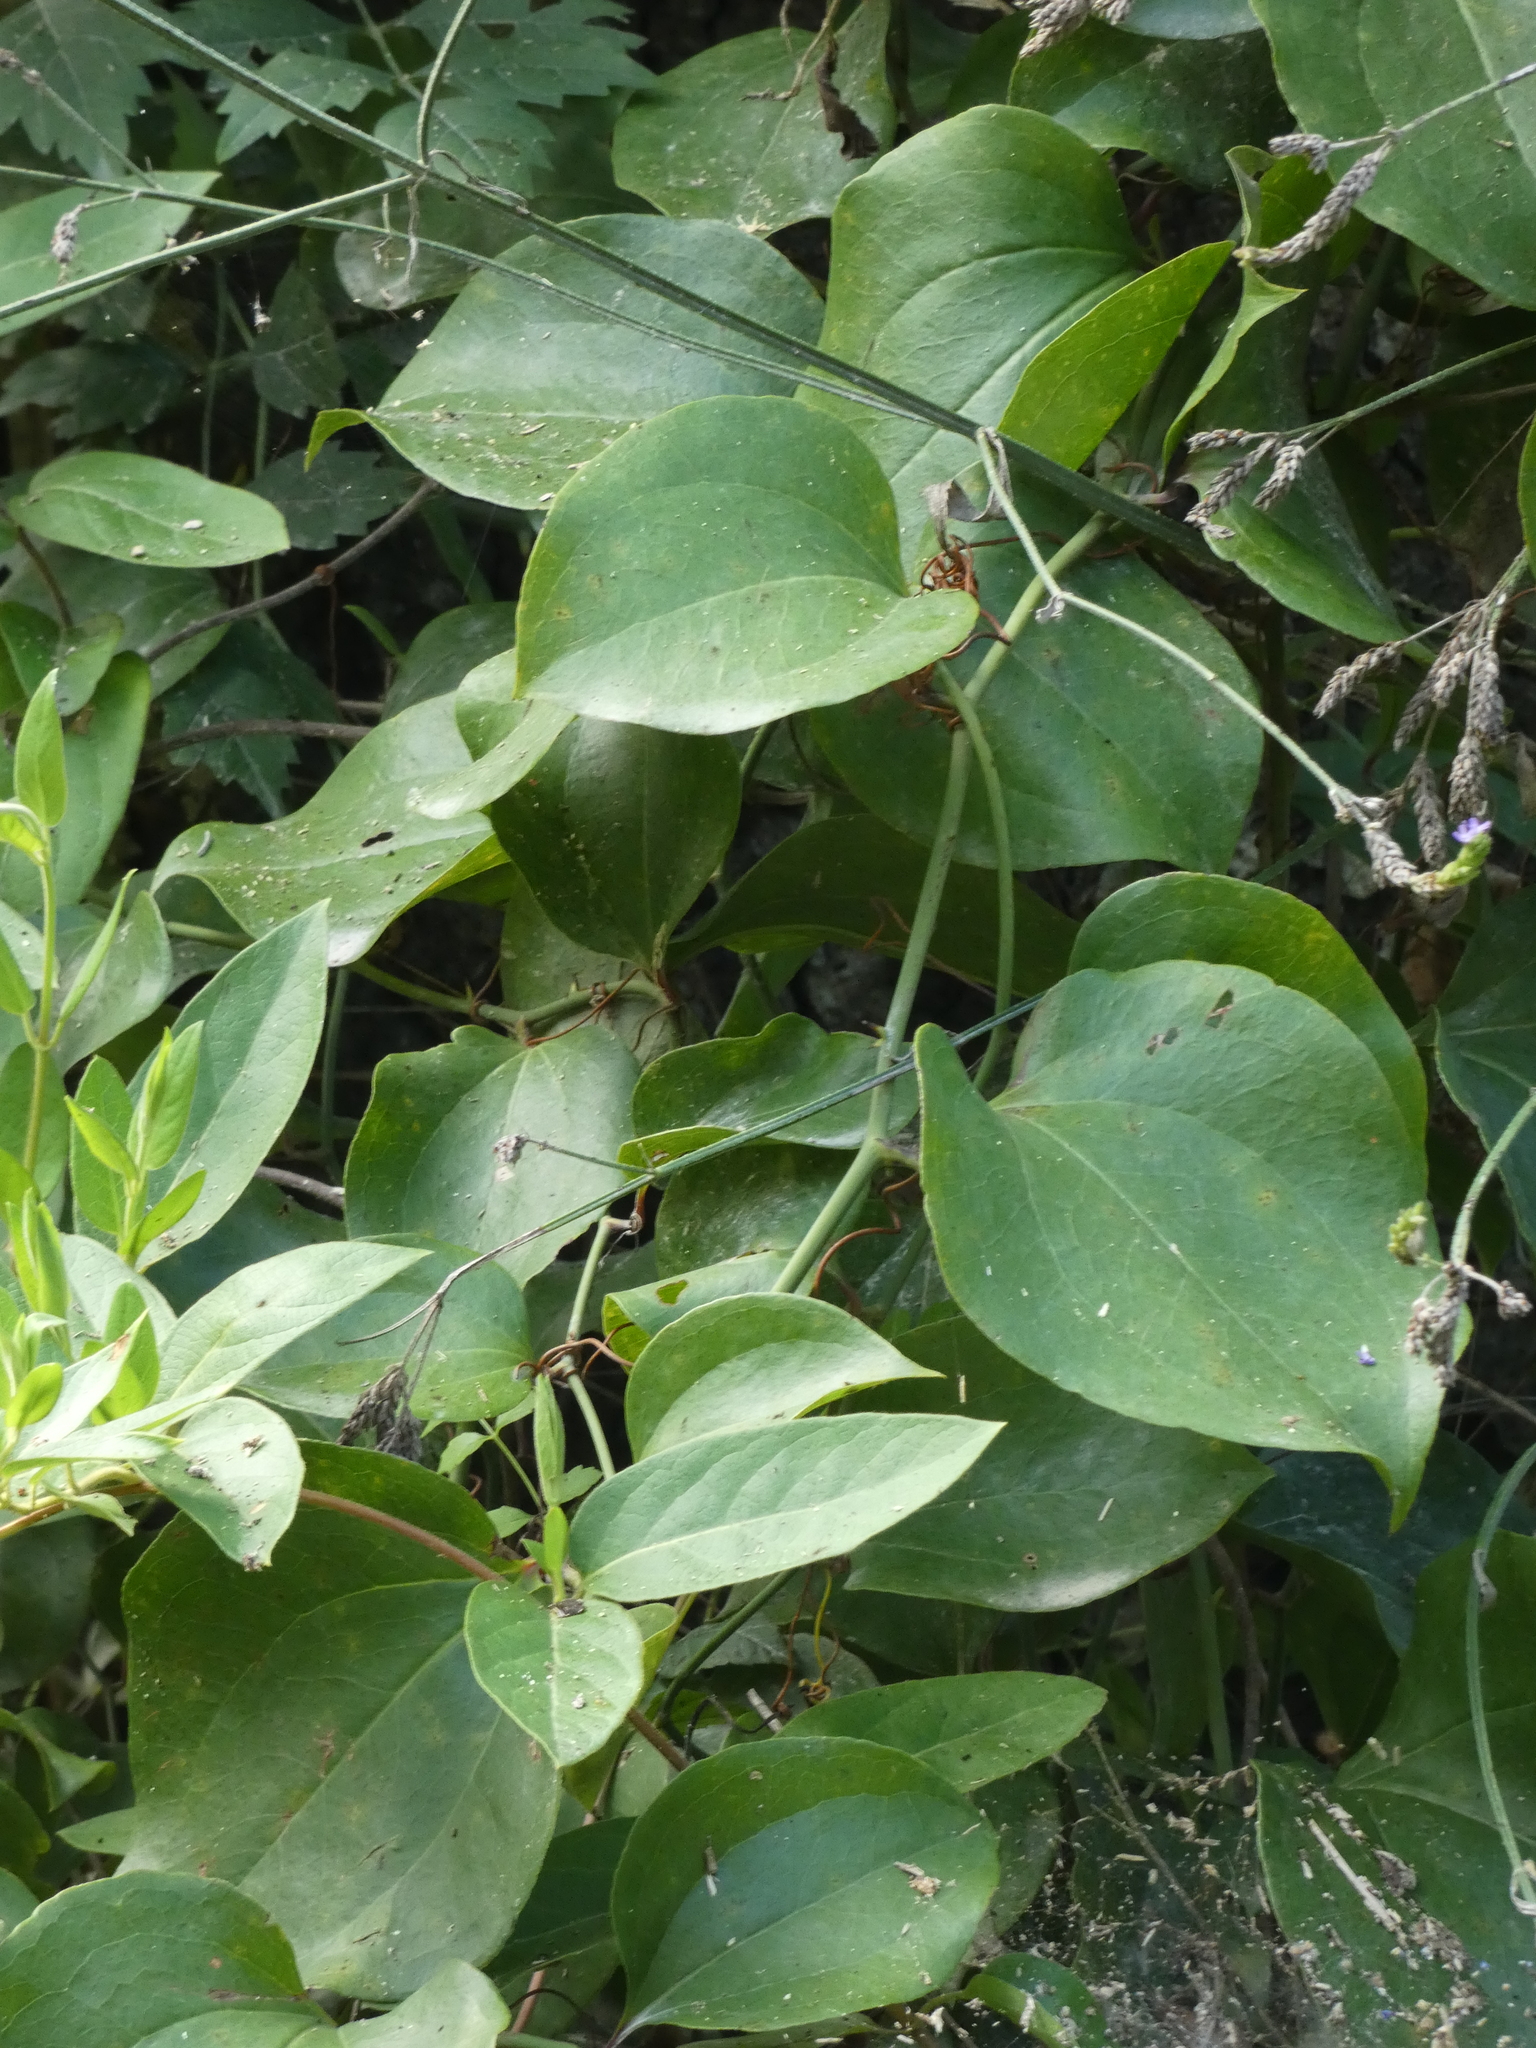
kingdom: Plantae
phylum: Tracheophyta
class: Liliopsida
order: Liliales
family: Smilacaceae
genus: Smilax
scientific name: Smilax rotundifolia
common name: Bullbriar
